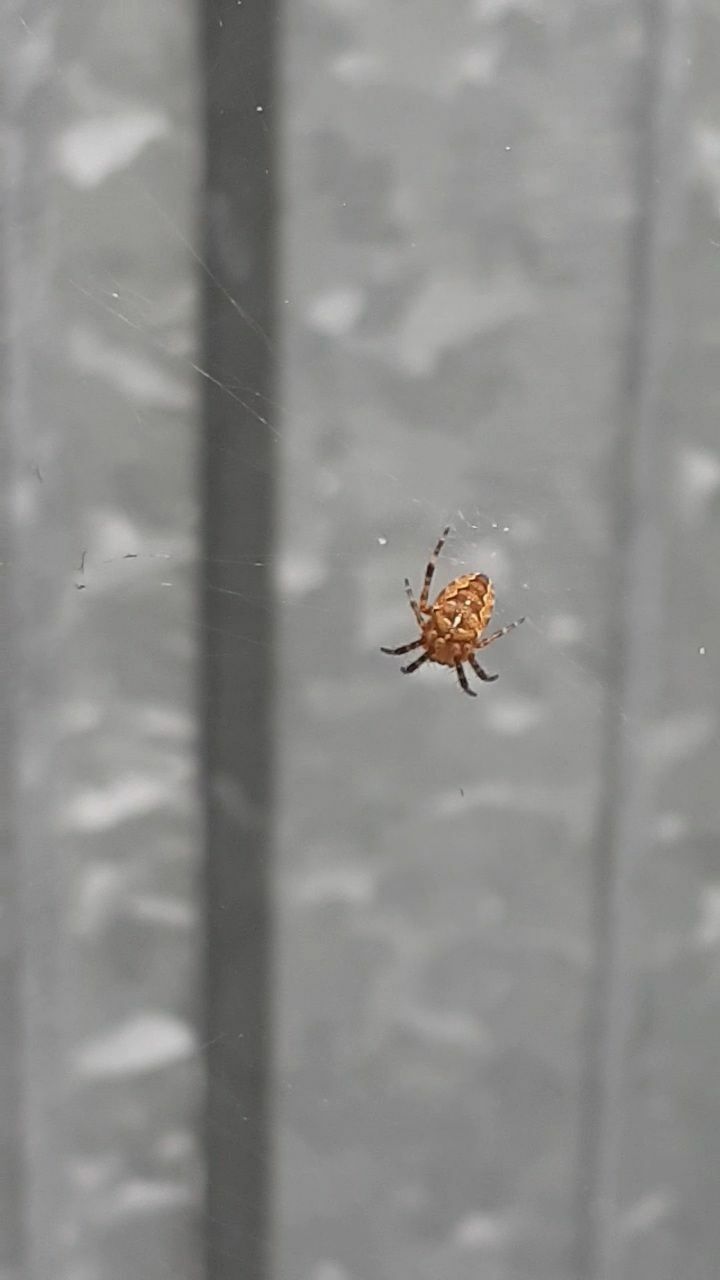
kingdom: Animalia
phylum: Arthropoda
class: Arachnida
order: Araneae
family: Araneidae
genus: Araneus
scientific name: Araneus diadematus
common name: Cross orbweaver
